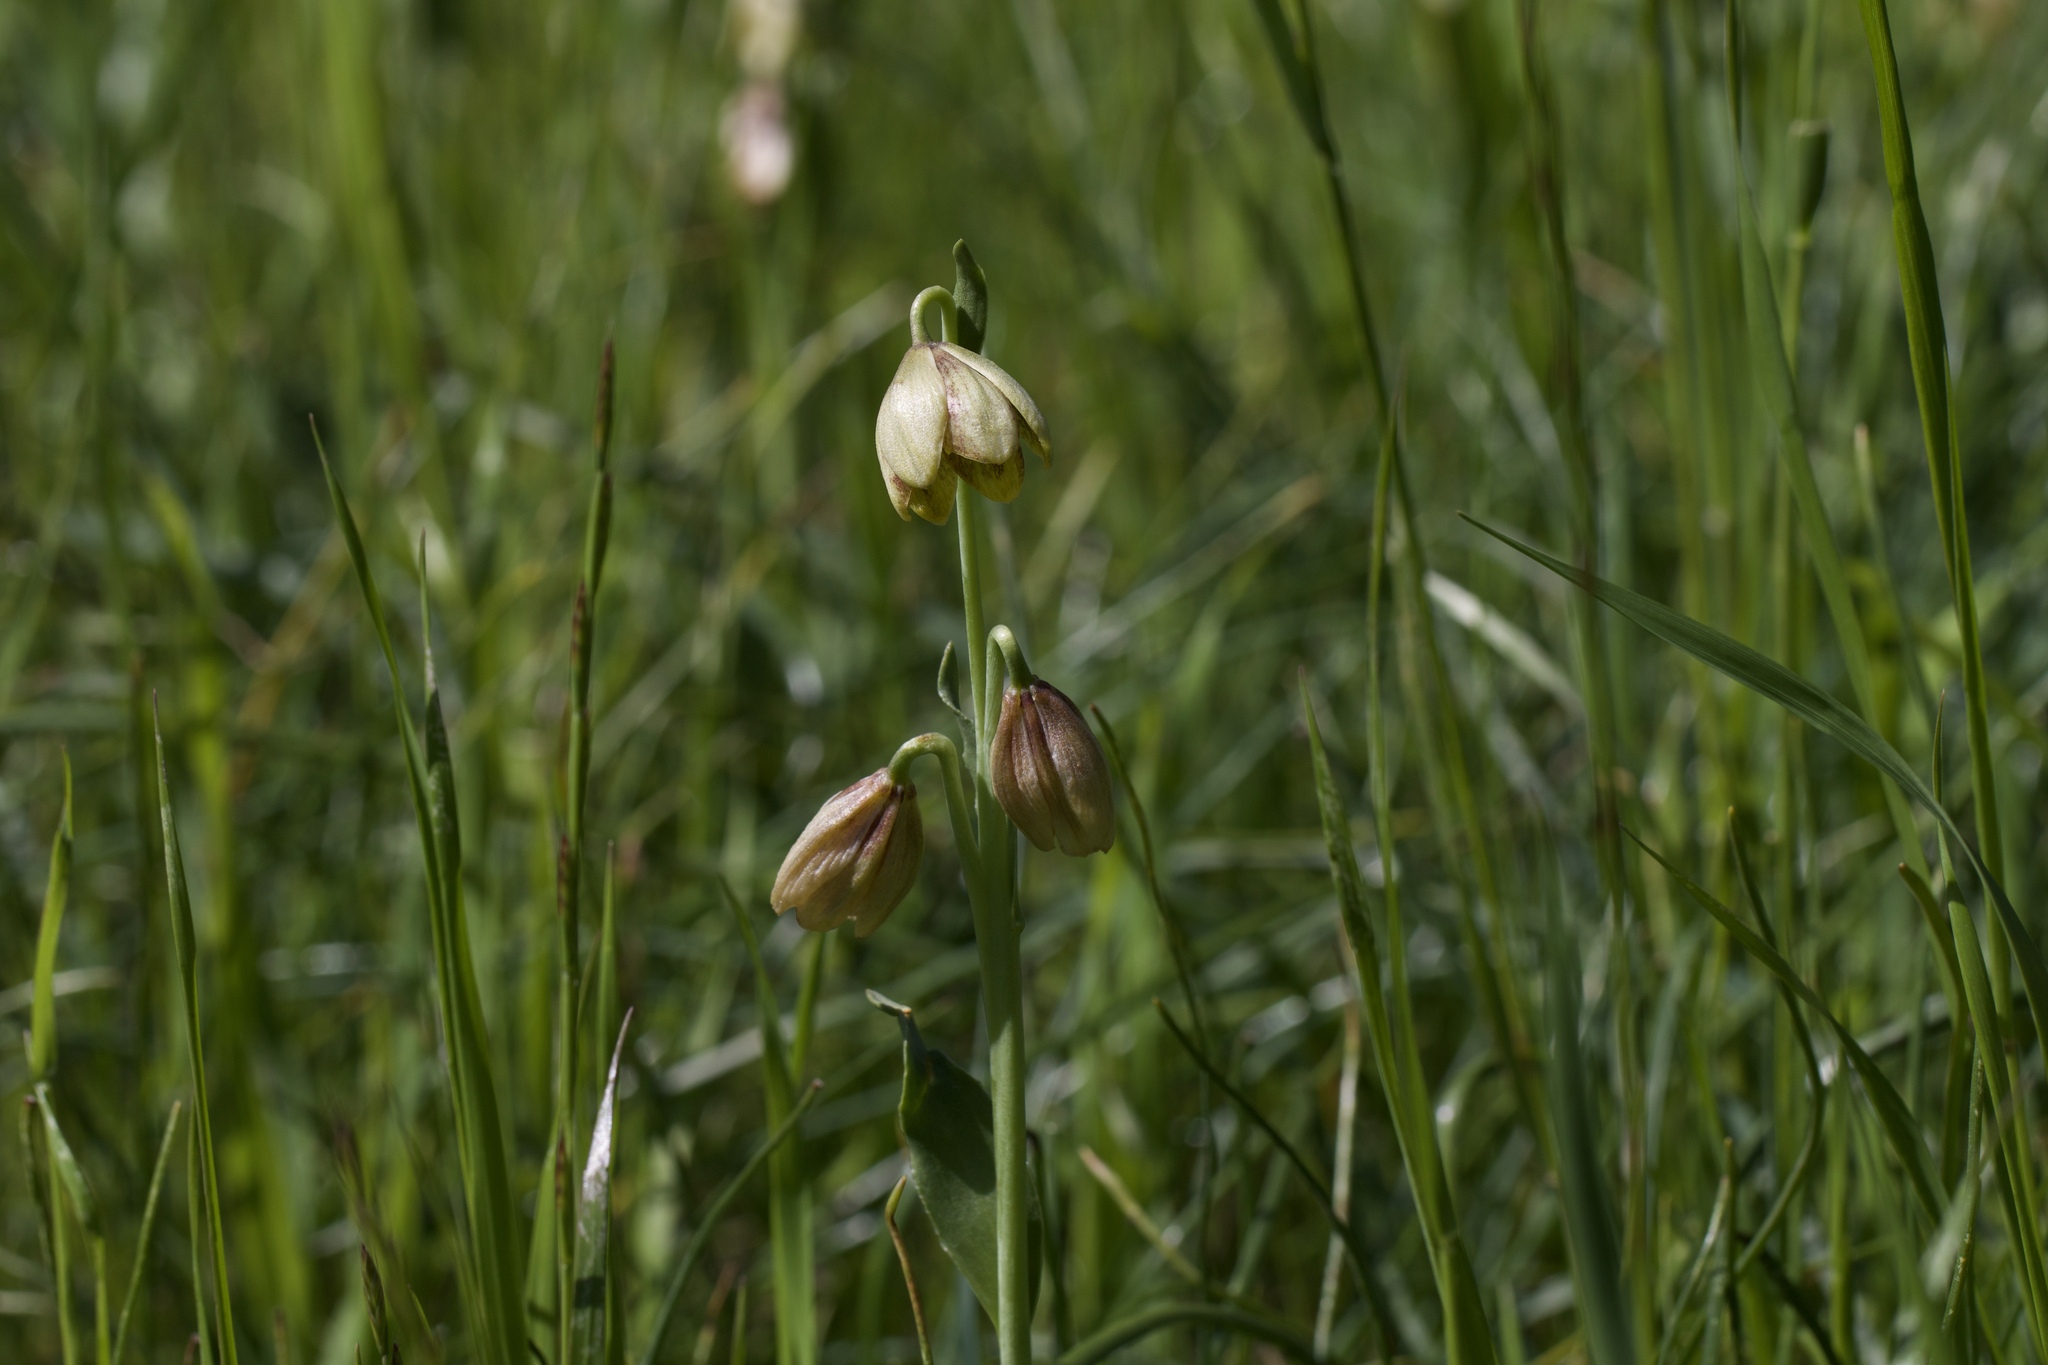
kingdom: Plantae
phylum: Tracheophyta
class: Liliopsida
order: Liliales
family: Liliaceae
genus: Fritillaria
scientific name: Fritillaria agrestis
